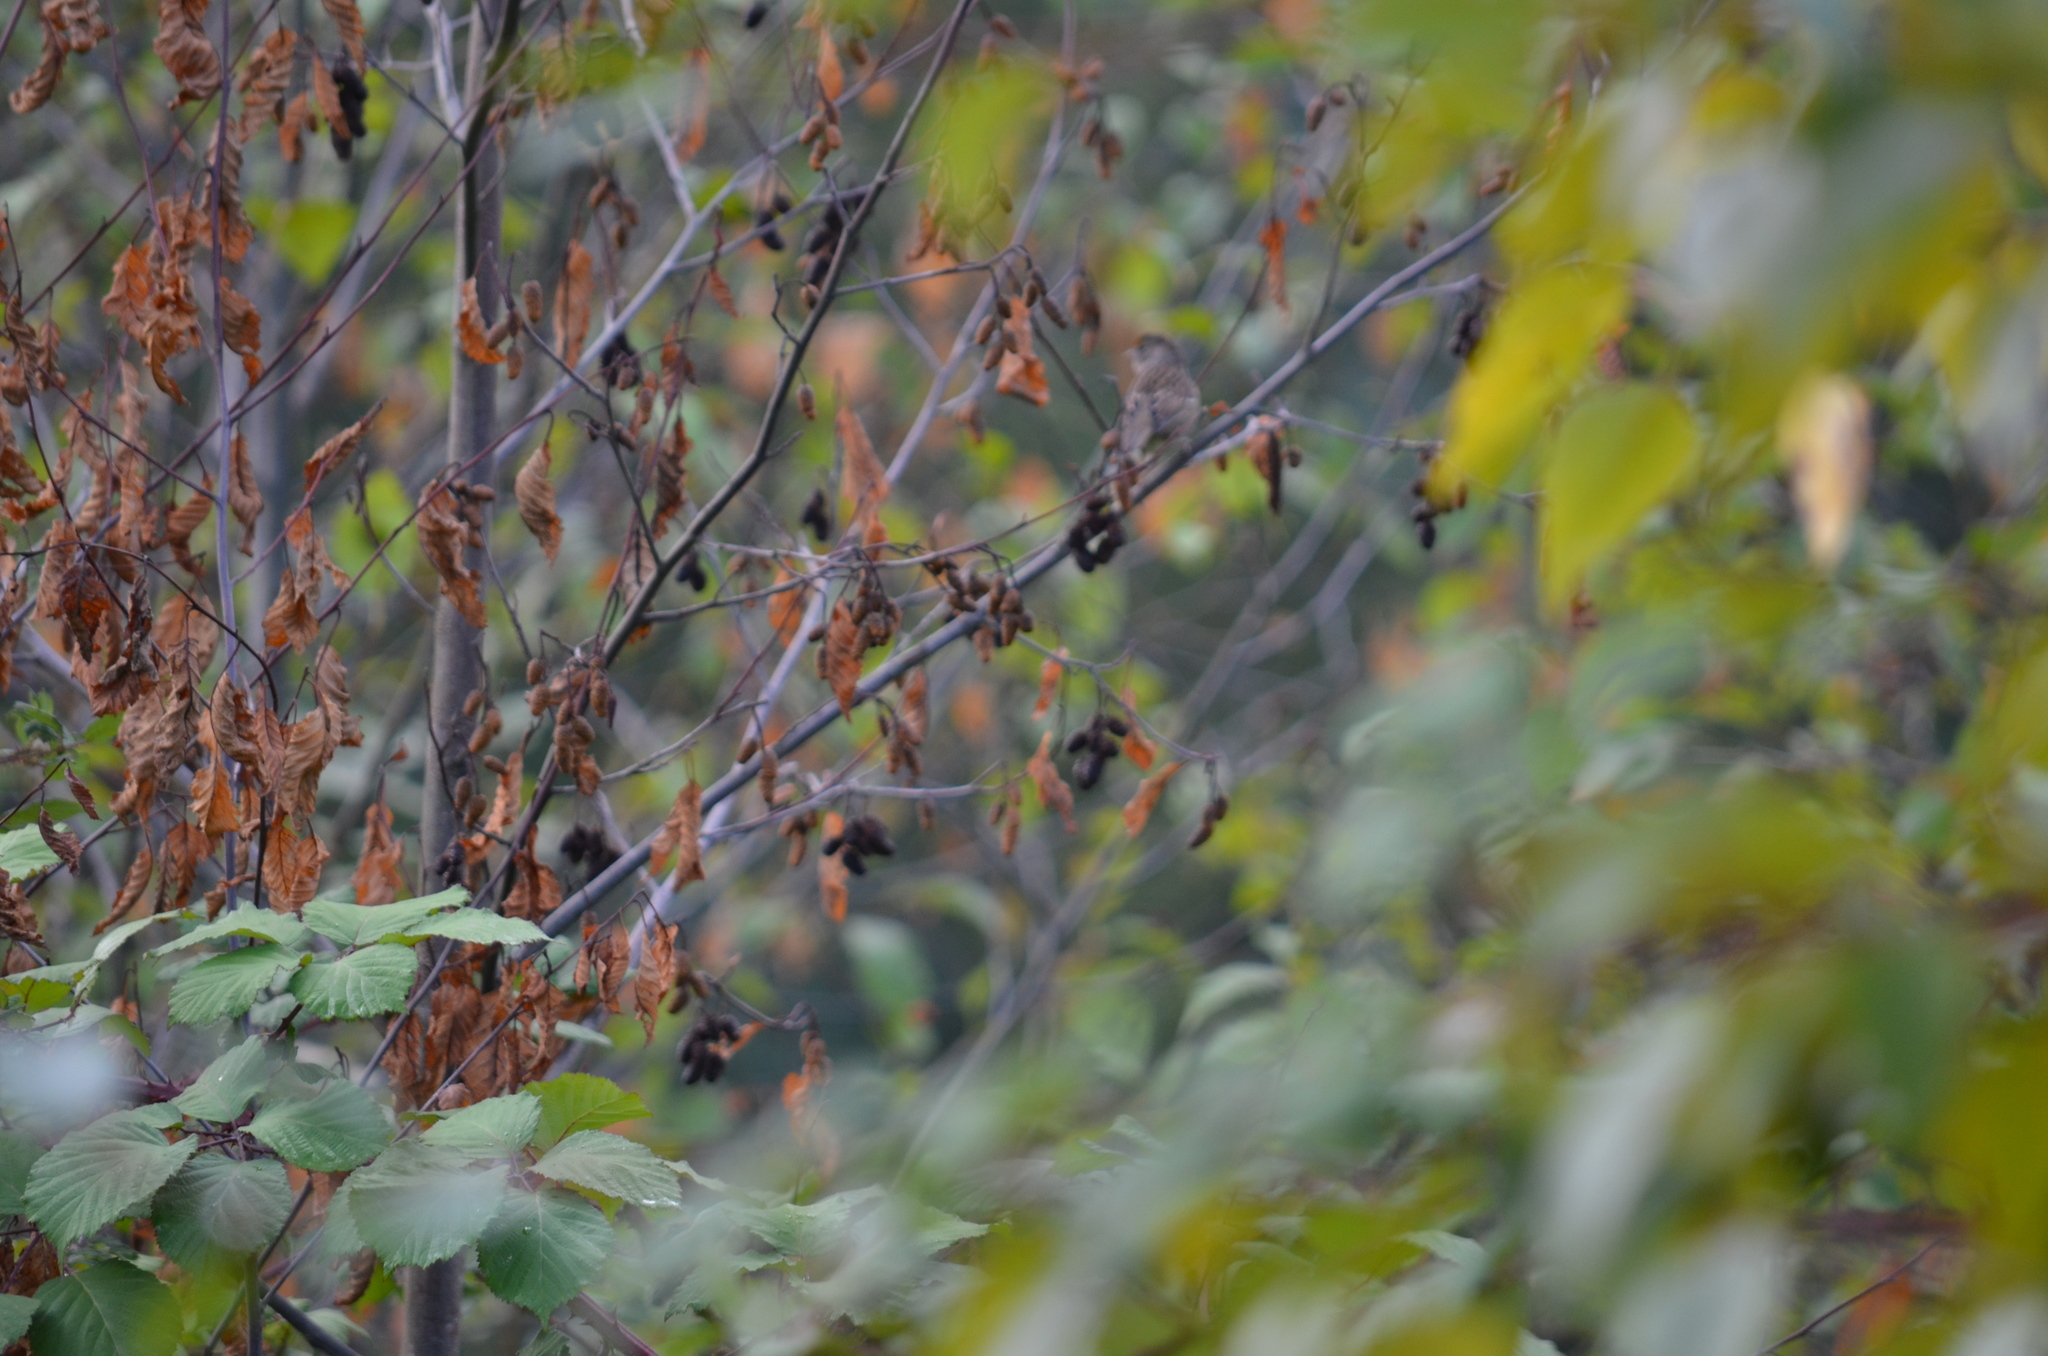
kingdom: Animalia
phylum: Chordata
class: Aves
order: Passeriformes
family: Passerellidae
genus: Zonotrichia
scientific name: Zonotrichia atricapilla
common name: Golden-crowned sparrow
